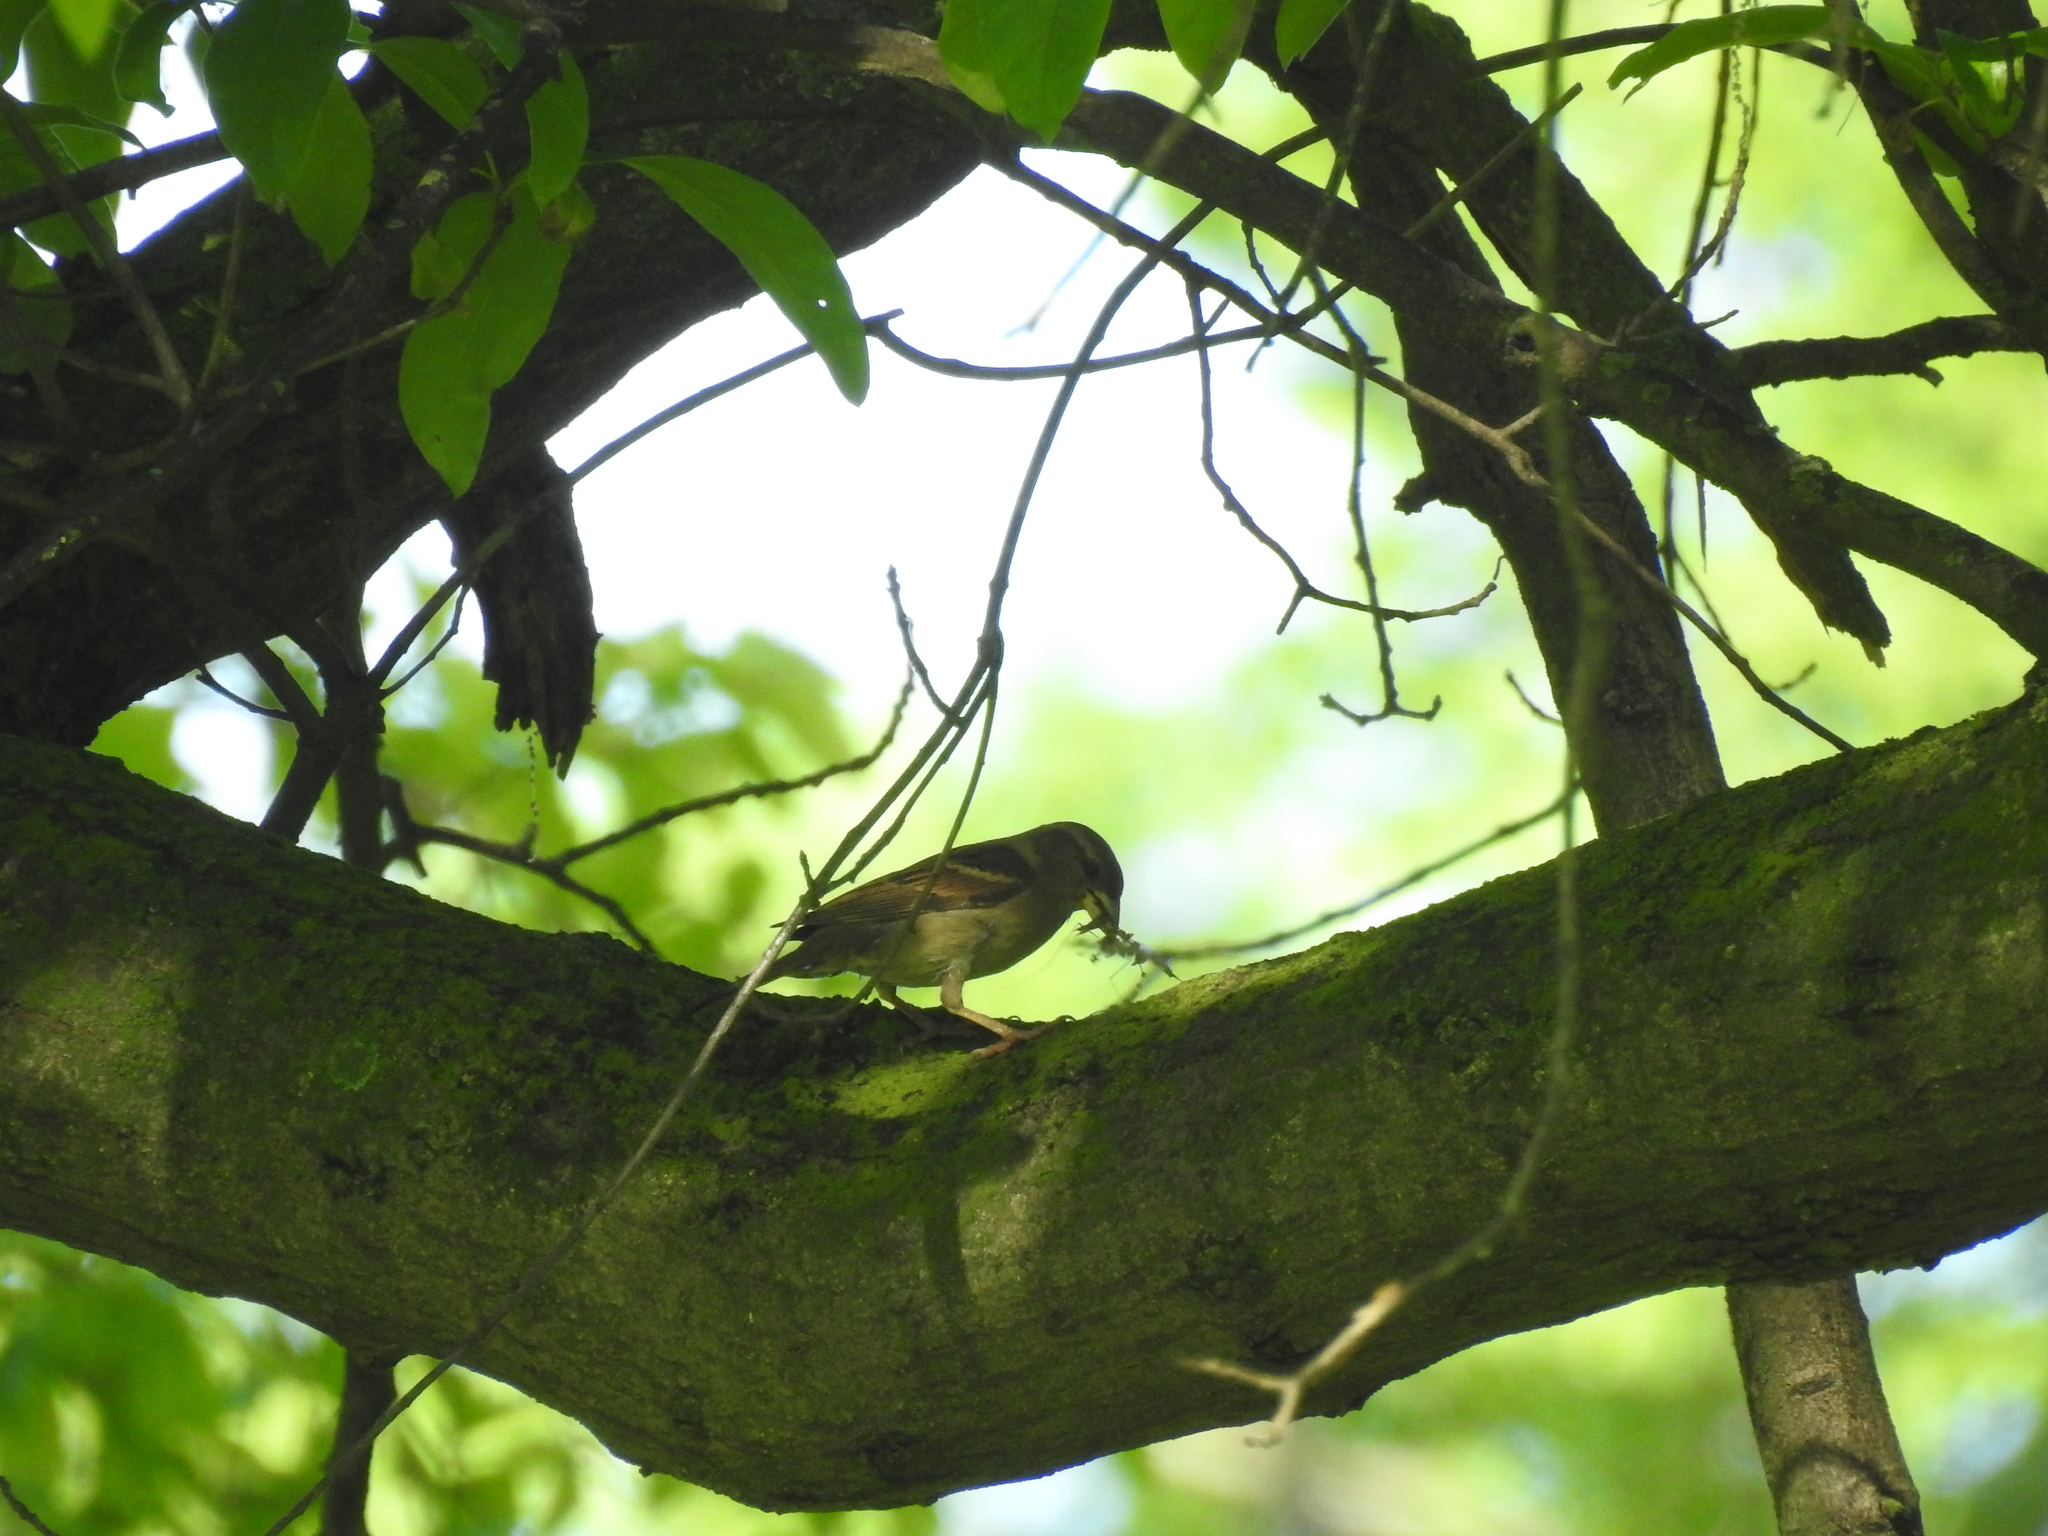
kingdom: Animalia
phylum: Chordata
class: Aves
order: Passeriformes
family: Passeridae
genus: Passer
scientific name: Passer domesticus
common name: House sparrow
